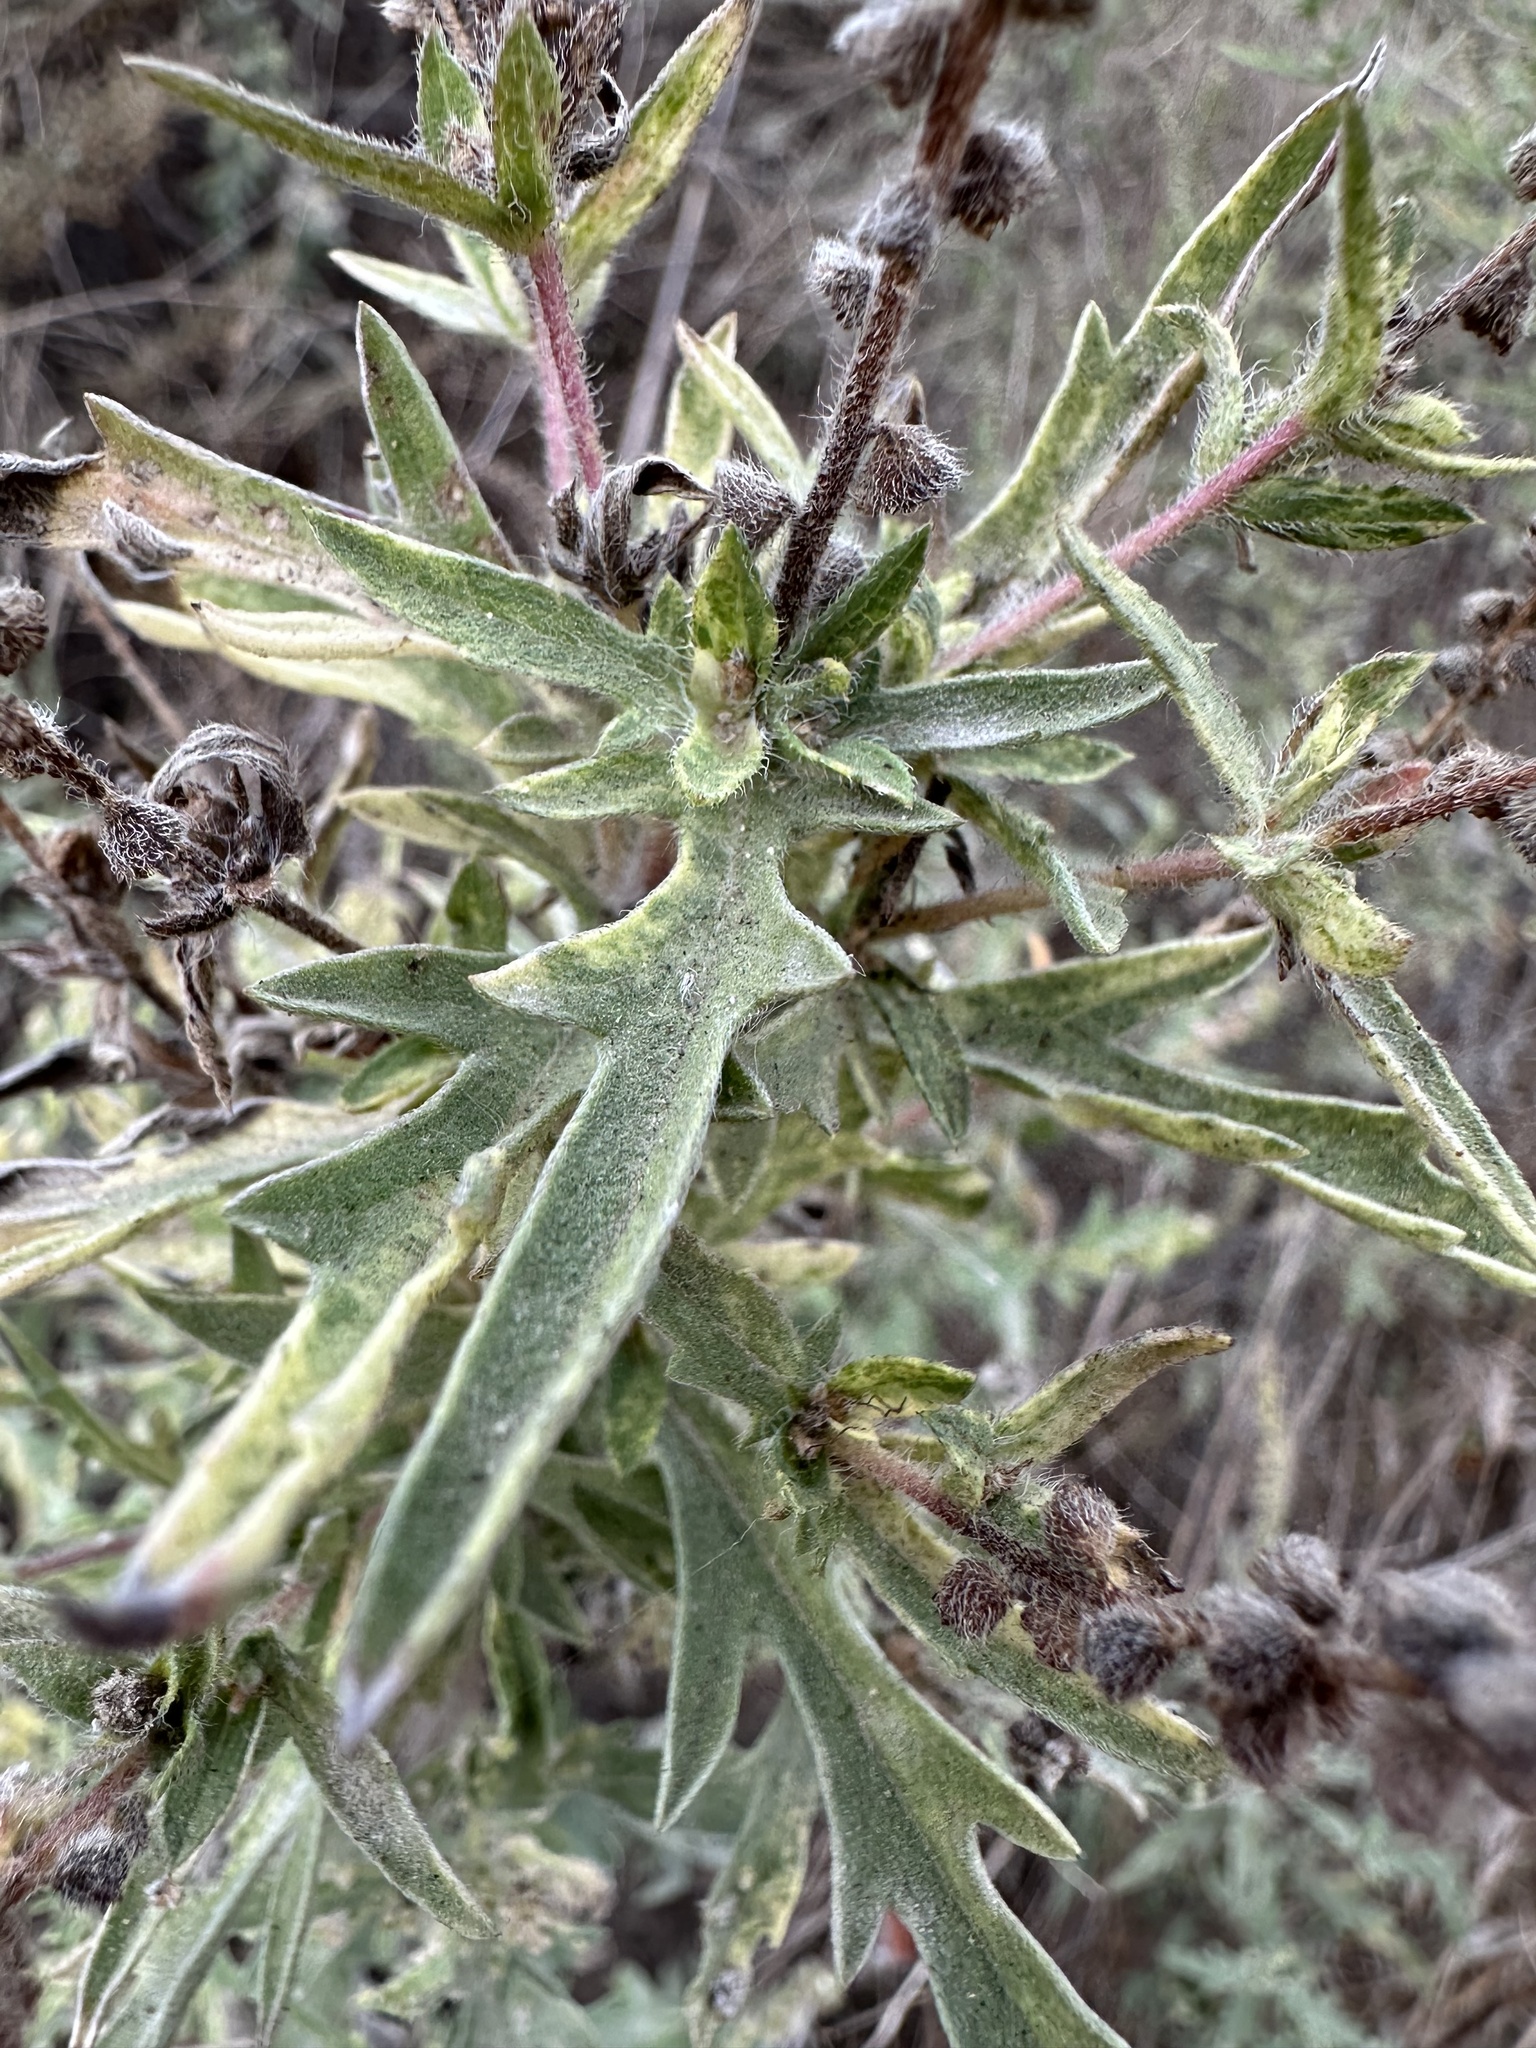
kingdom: Plantae
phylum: Tracheophyta
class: Magnoliopsida
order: Asterales
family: Asteraceae
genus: Ambrosia
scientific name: Ambrosia psilostachya
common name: Perennial ragweed
